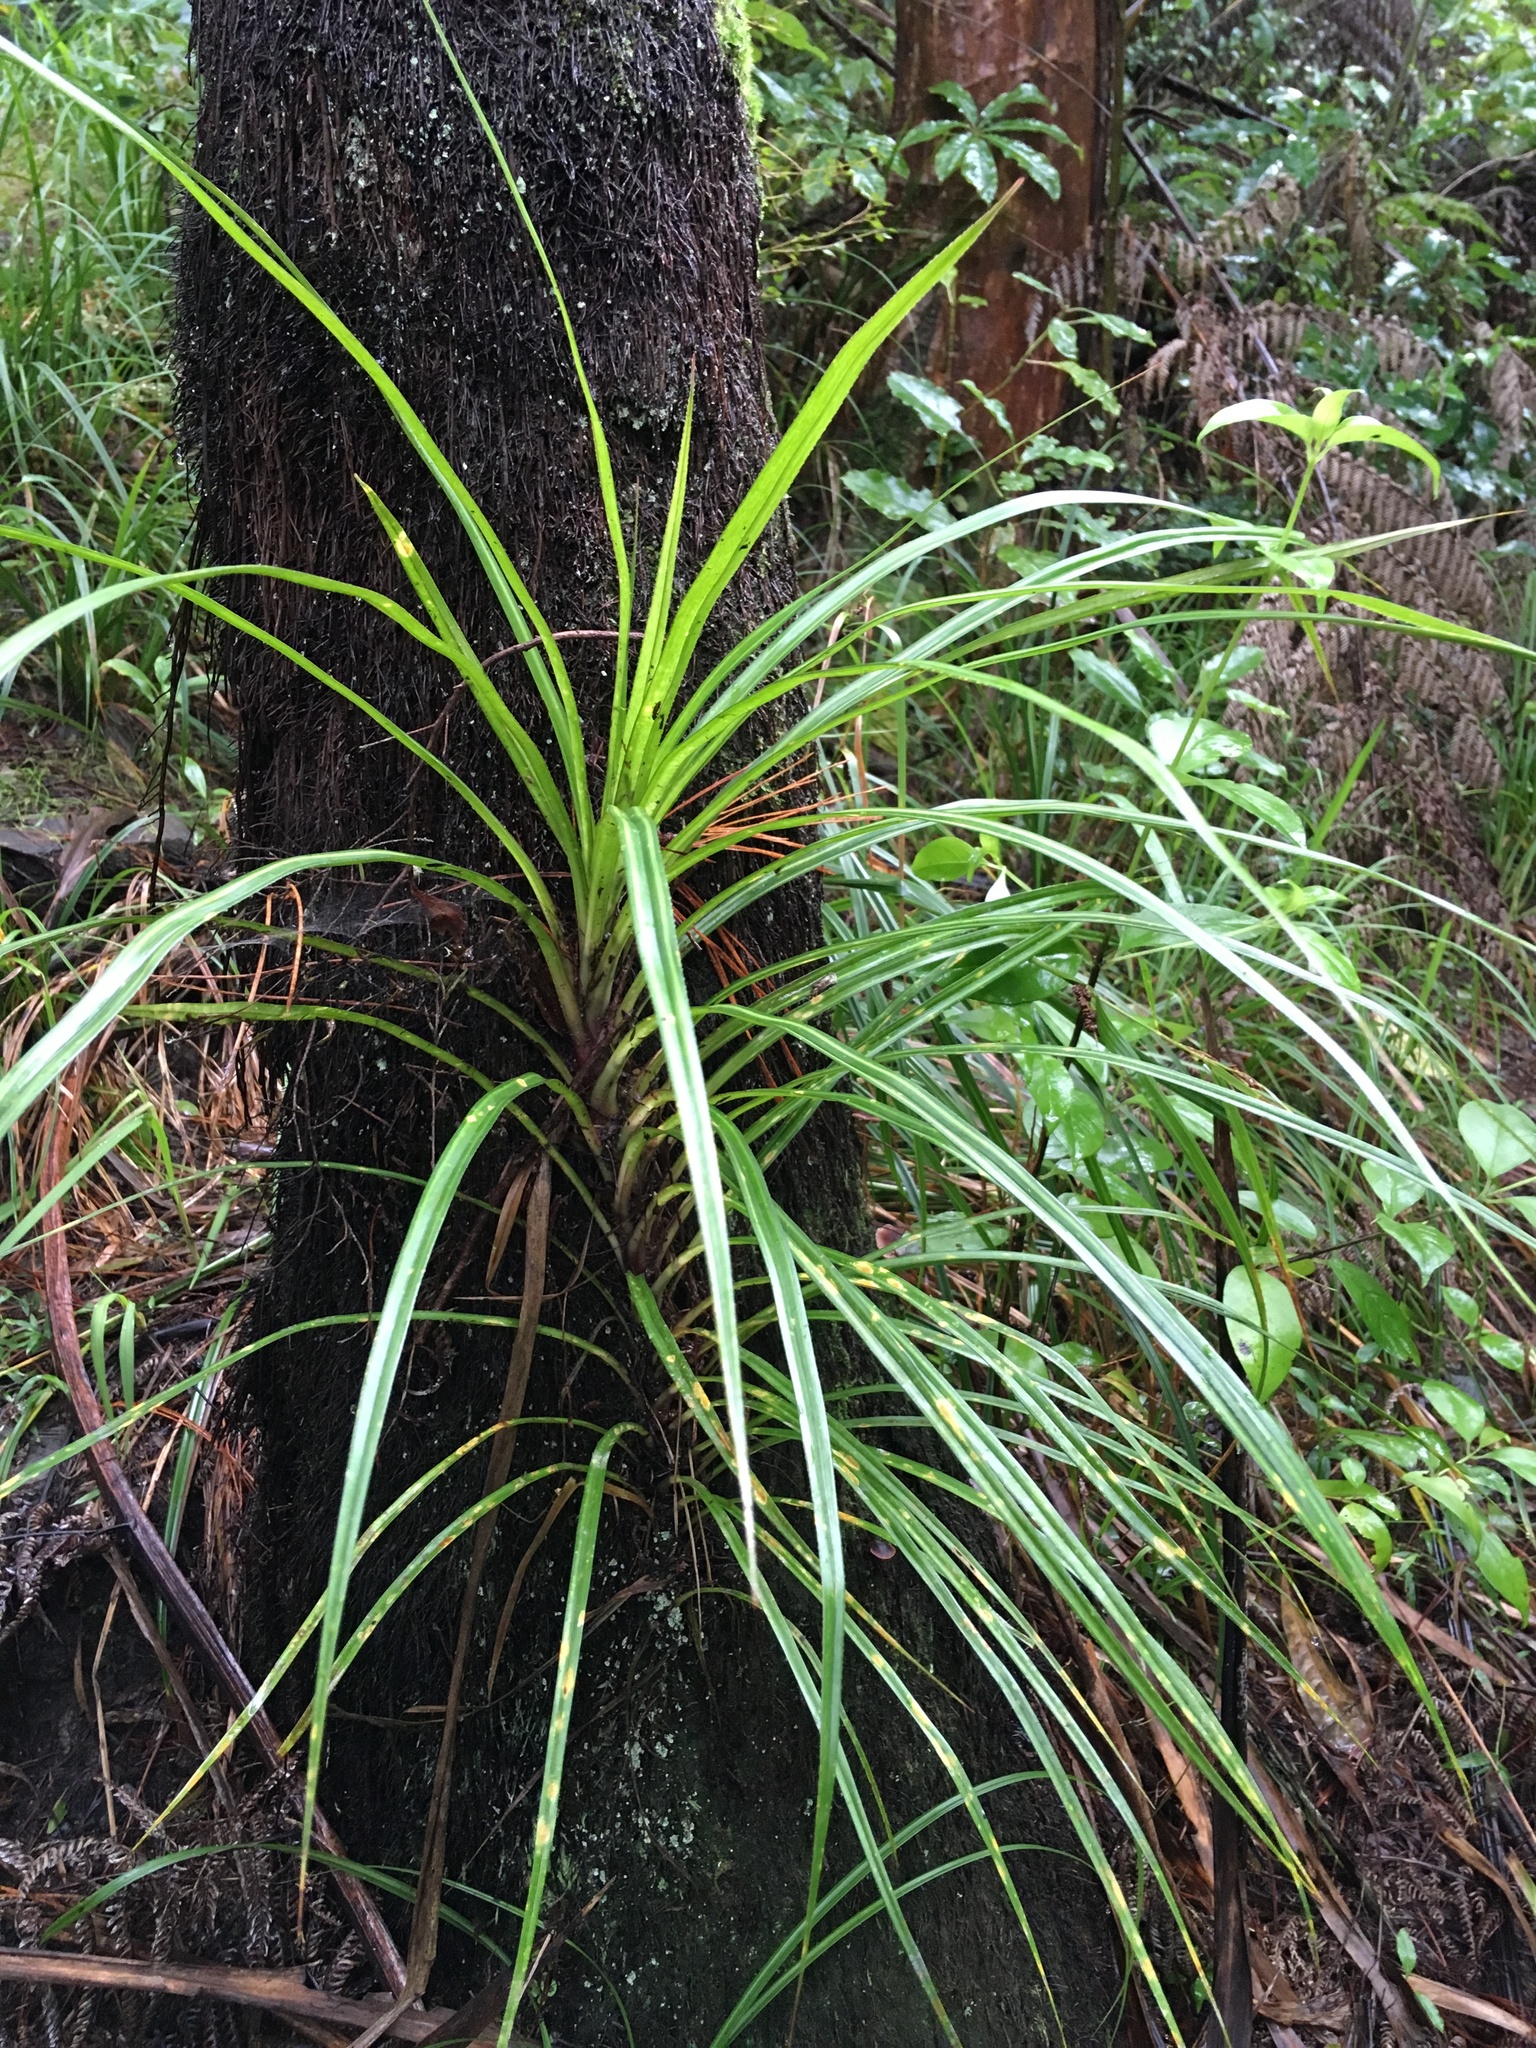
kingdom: Plantae
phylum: Tracheophyta
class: Liliopsida
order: Pandanales
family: Pandanaceae
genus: Freycinetia
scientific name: Freycinetia banksii
